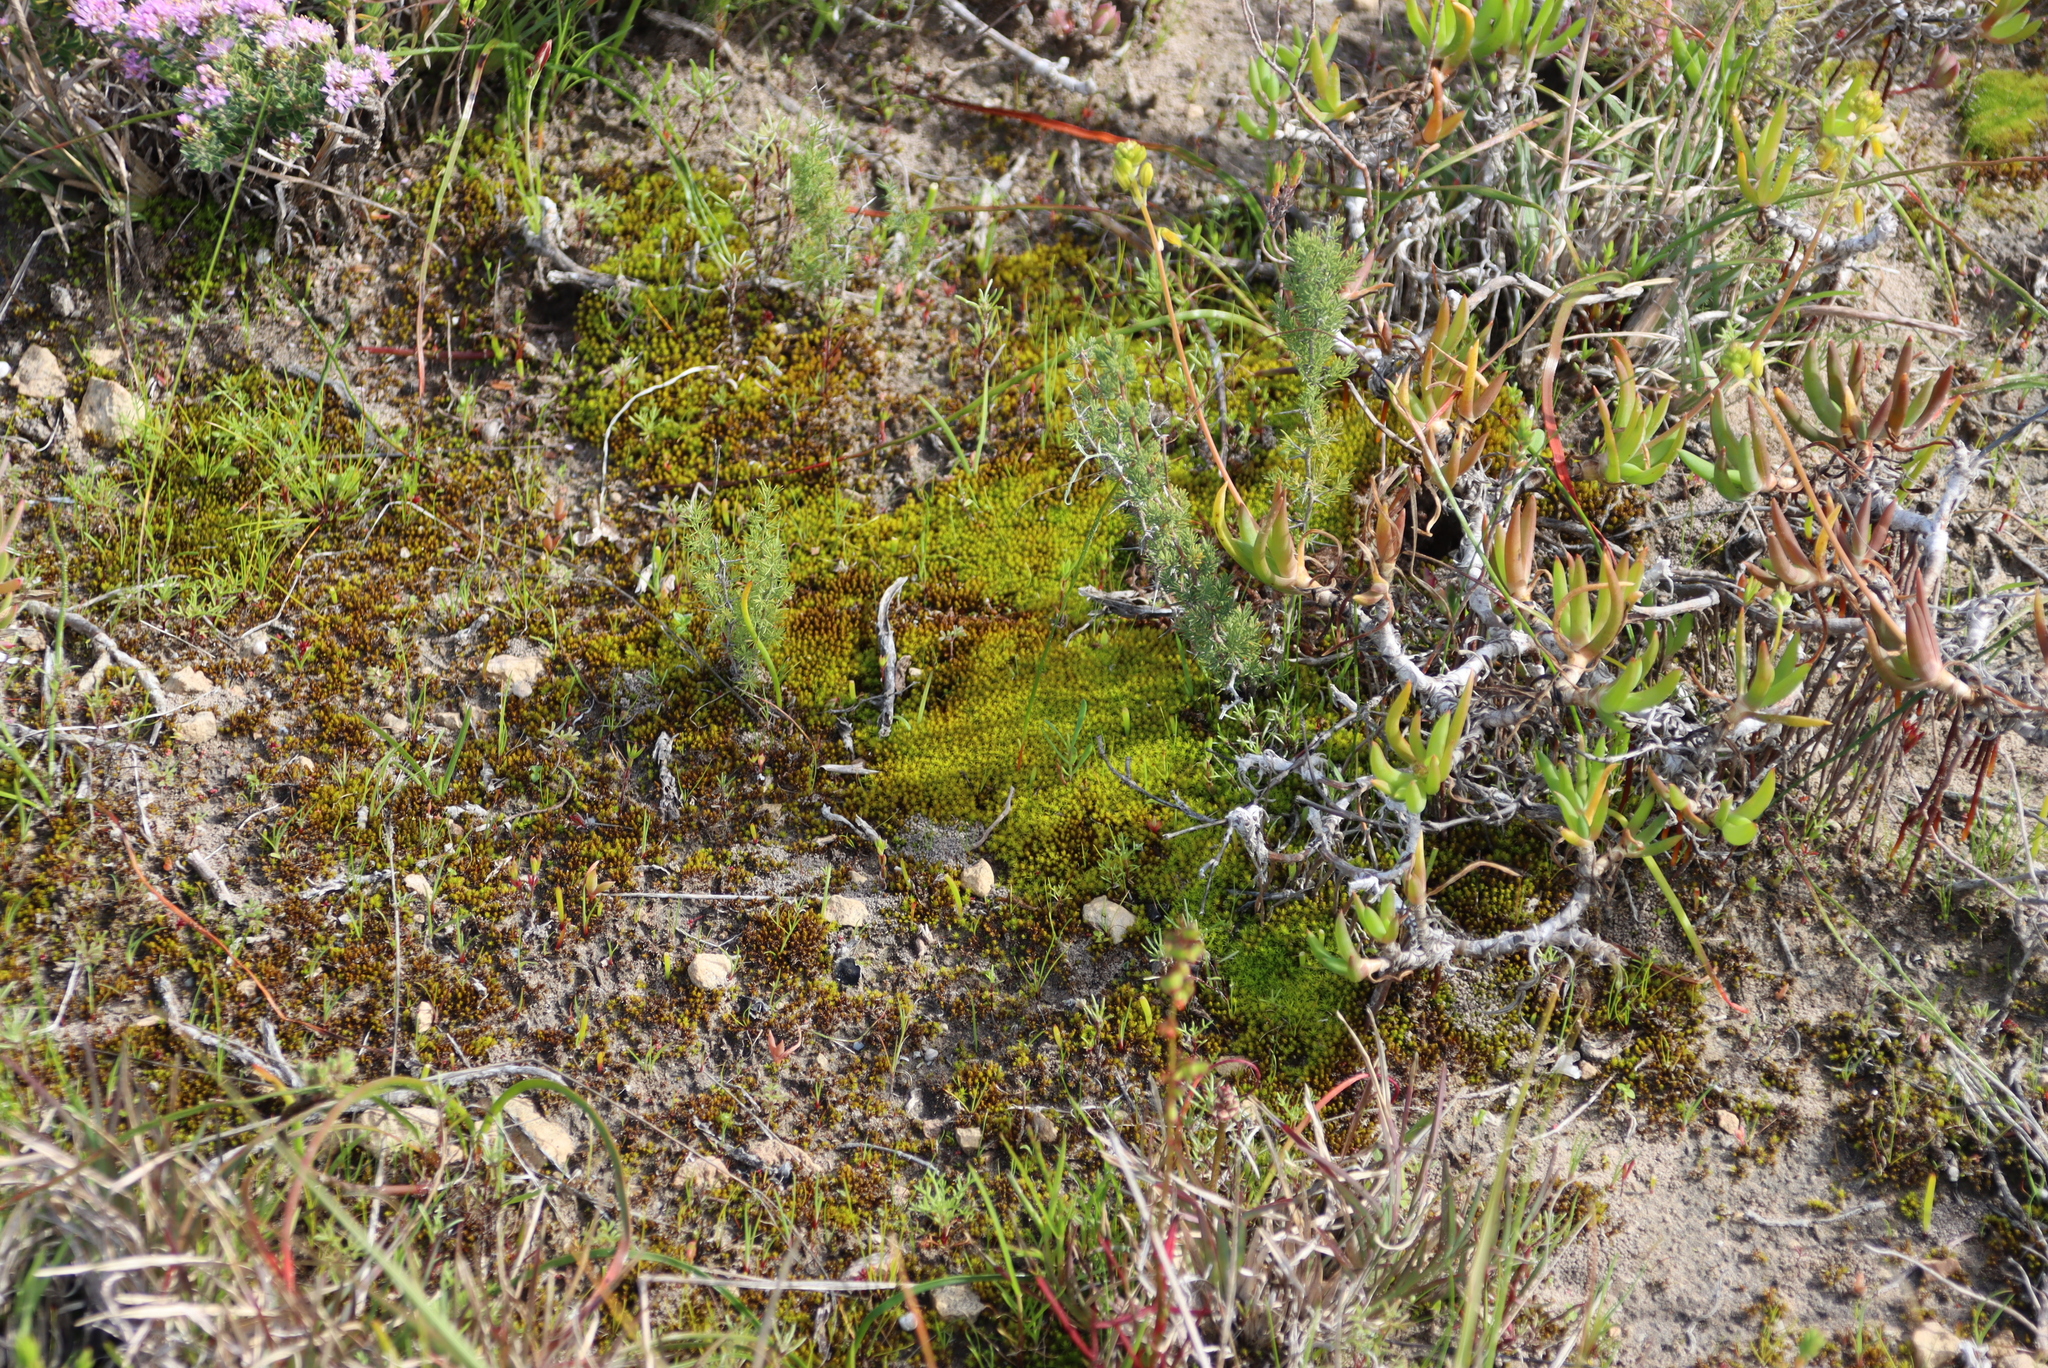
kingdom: Plantae
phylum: Tracheophyta
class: Liliopsida
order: Asparagales
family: Asphodelaceae
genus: Bulbine
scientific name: Bulbine frutescens
